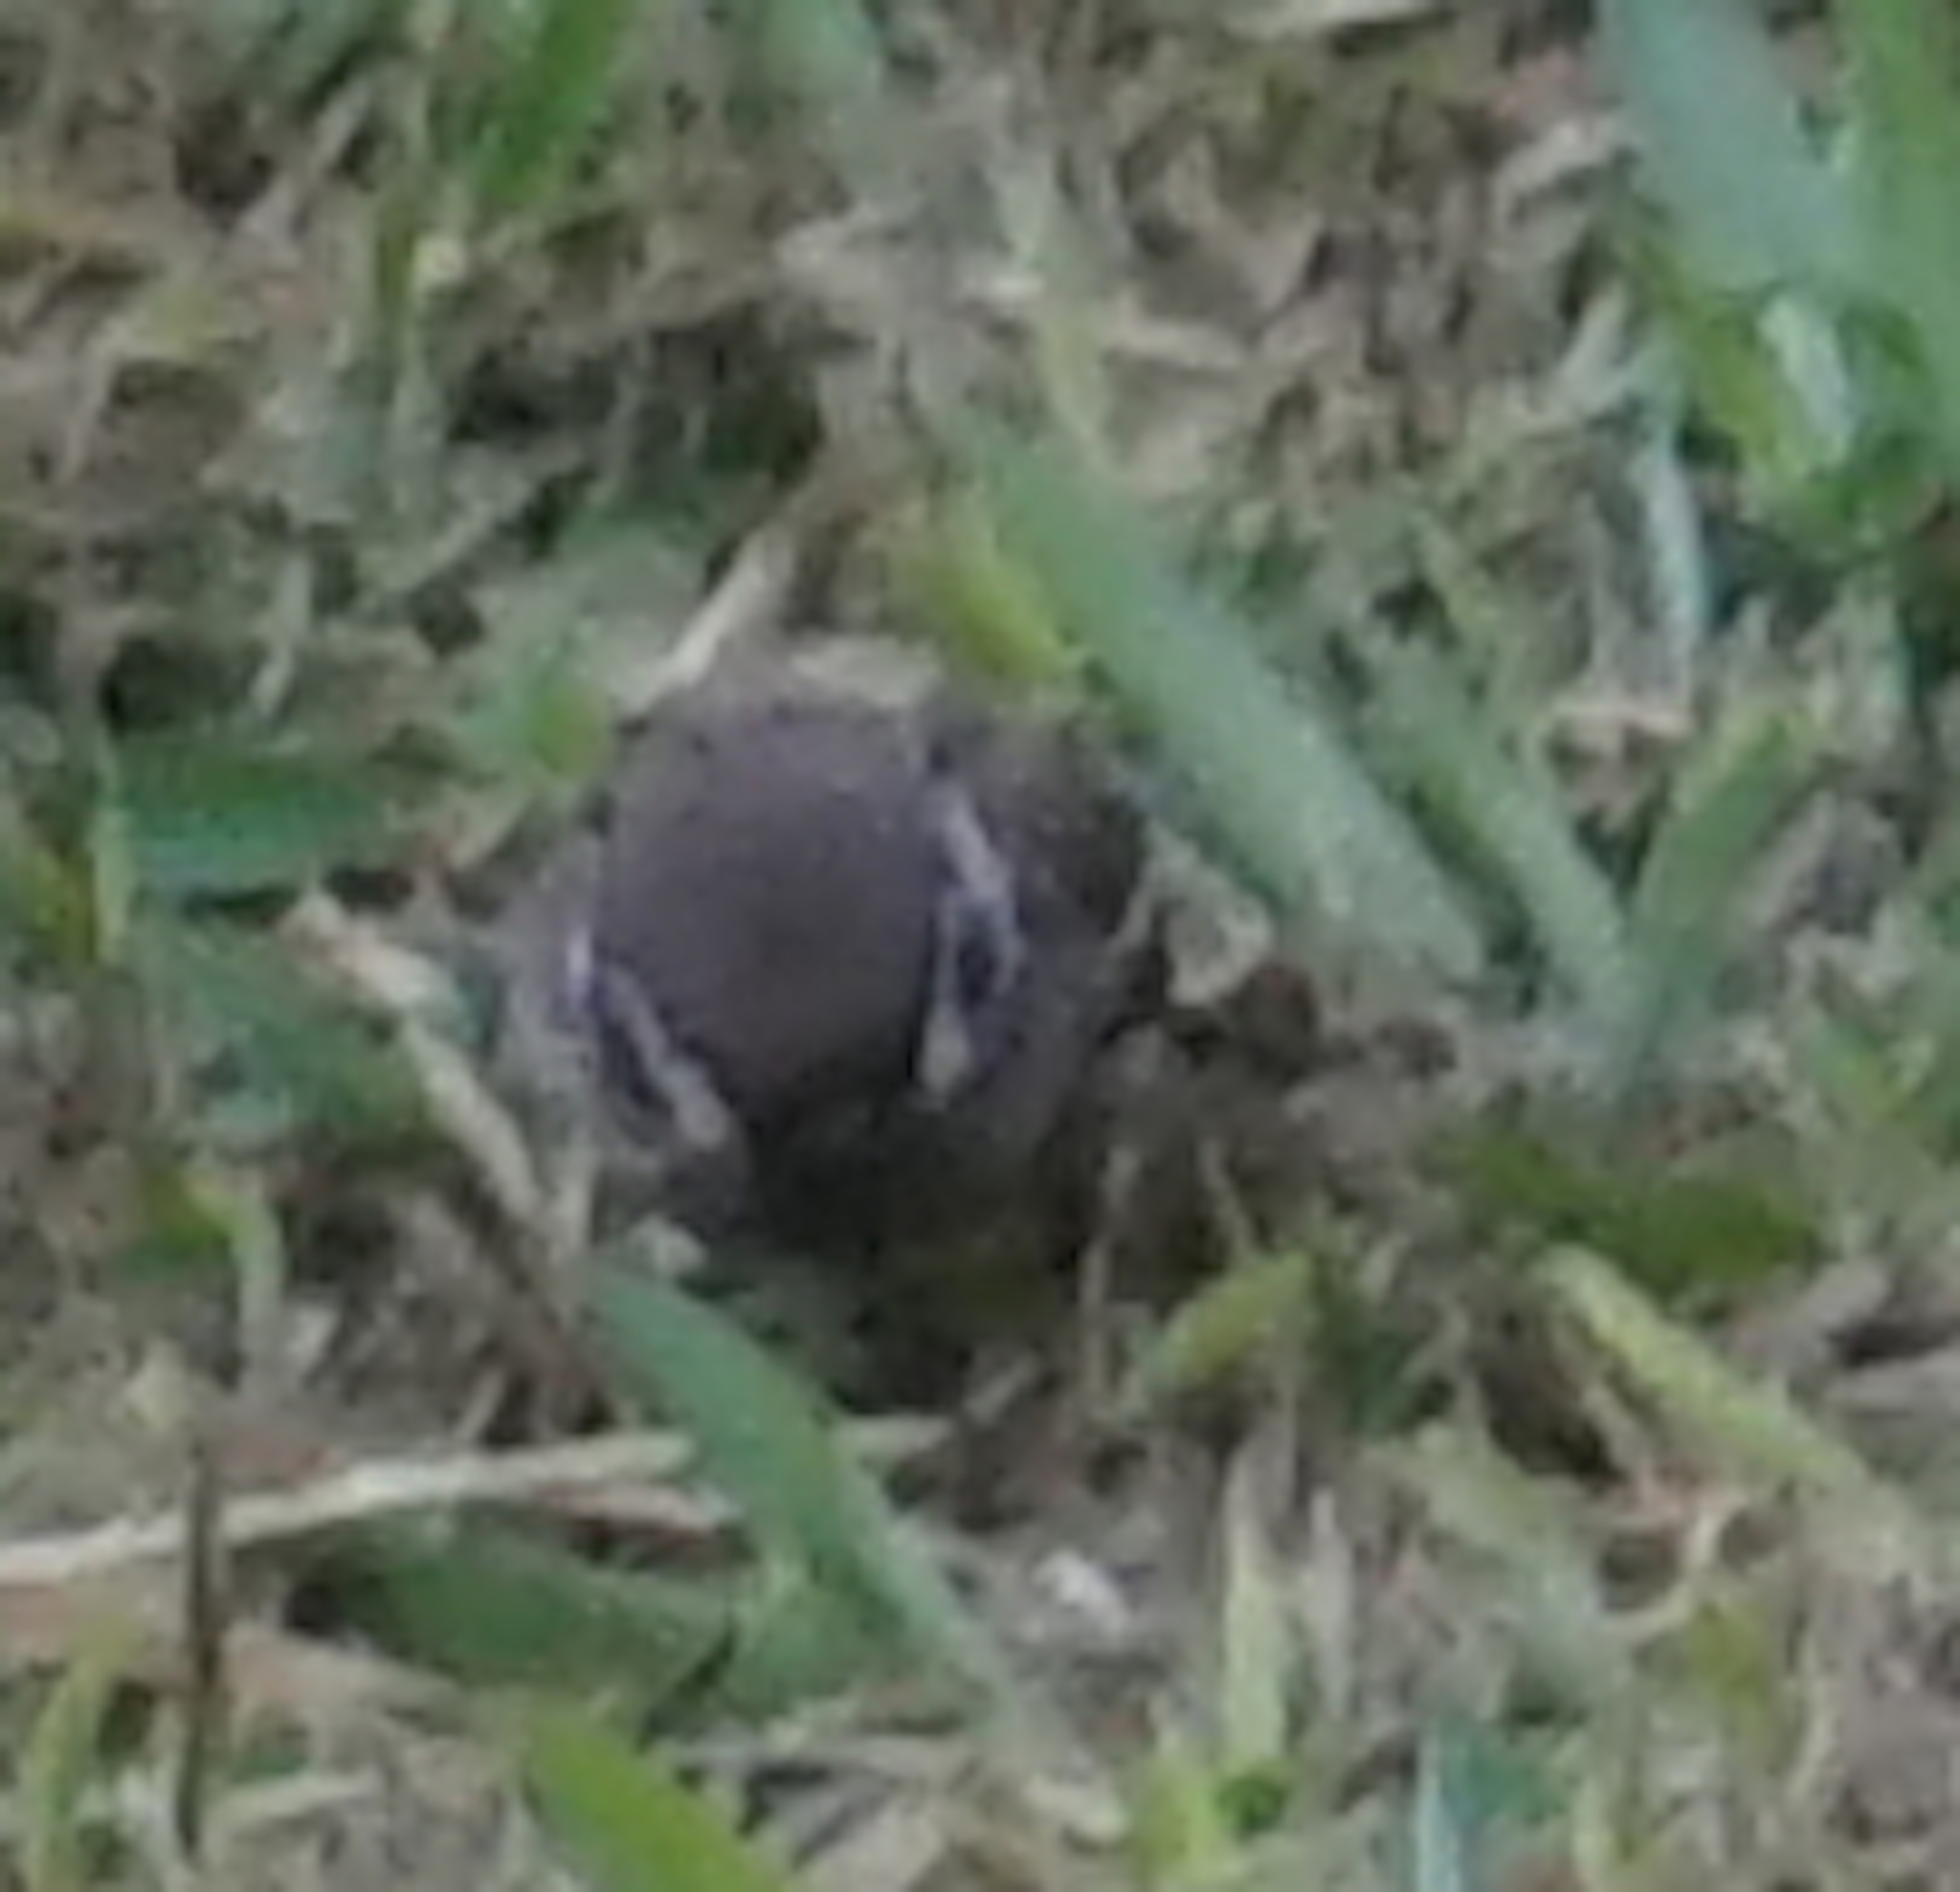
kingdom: Animalia
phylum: Chordata
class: Aves
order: Passeriformes
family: Passeridae
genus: Passer
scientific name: Passer montanus
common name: Eurasian tree sparrow
